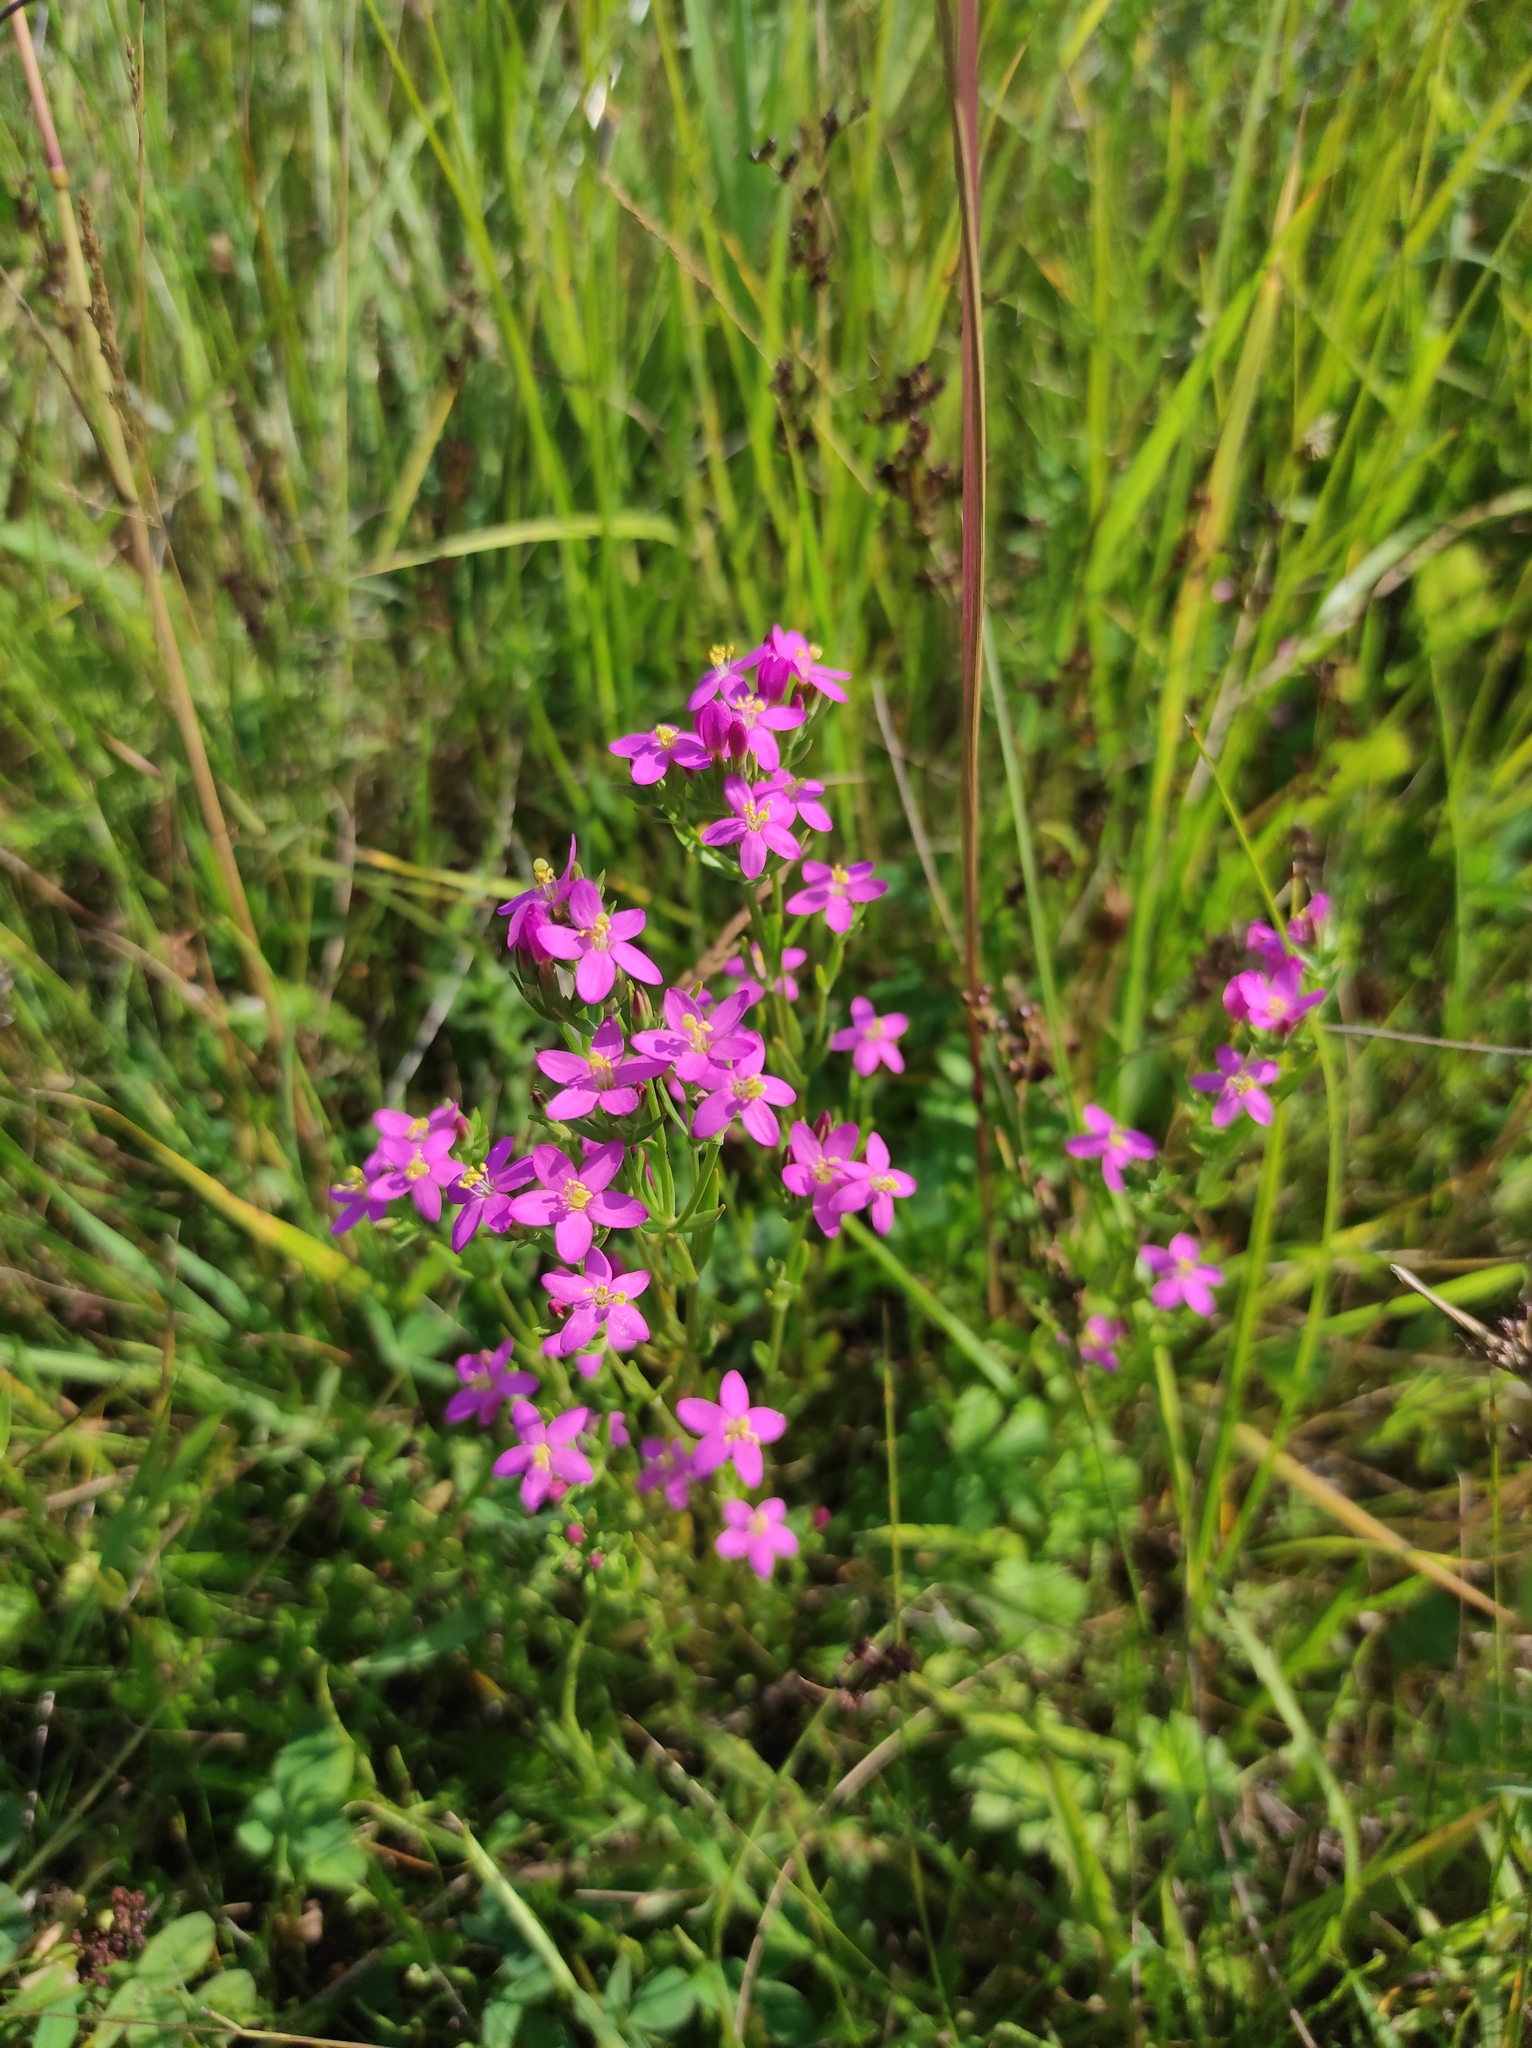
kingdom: Plantae
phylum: Tracheophyta
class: Magnoliopsida
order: Gentianales
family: Gentianaceae
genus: Centaurium
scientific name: Centaurium pulchellum
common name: Lesser centaury
